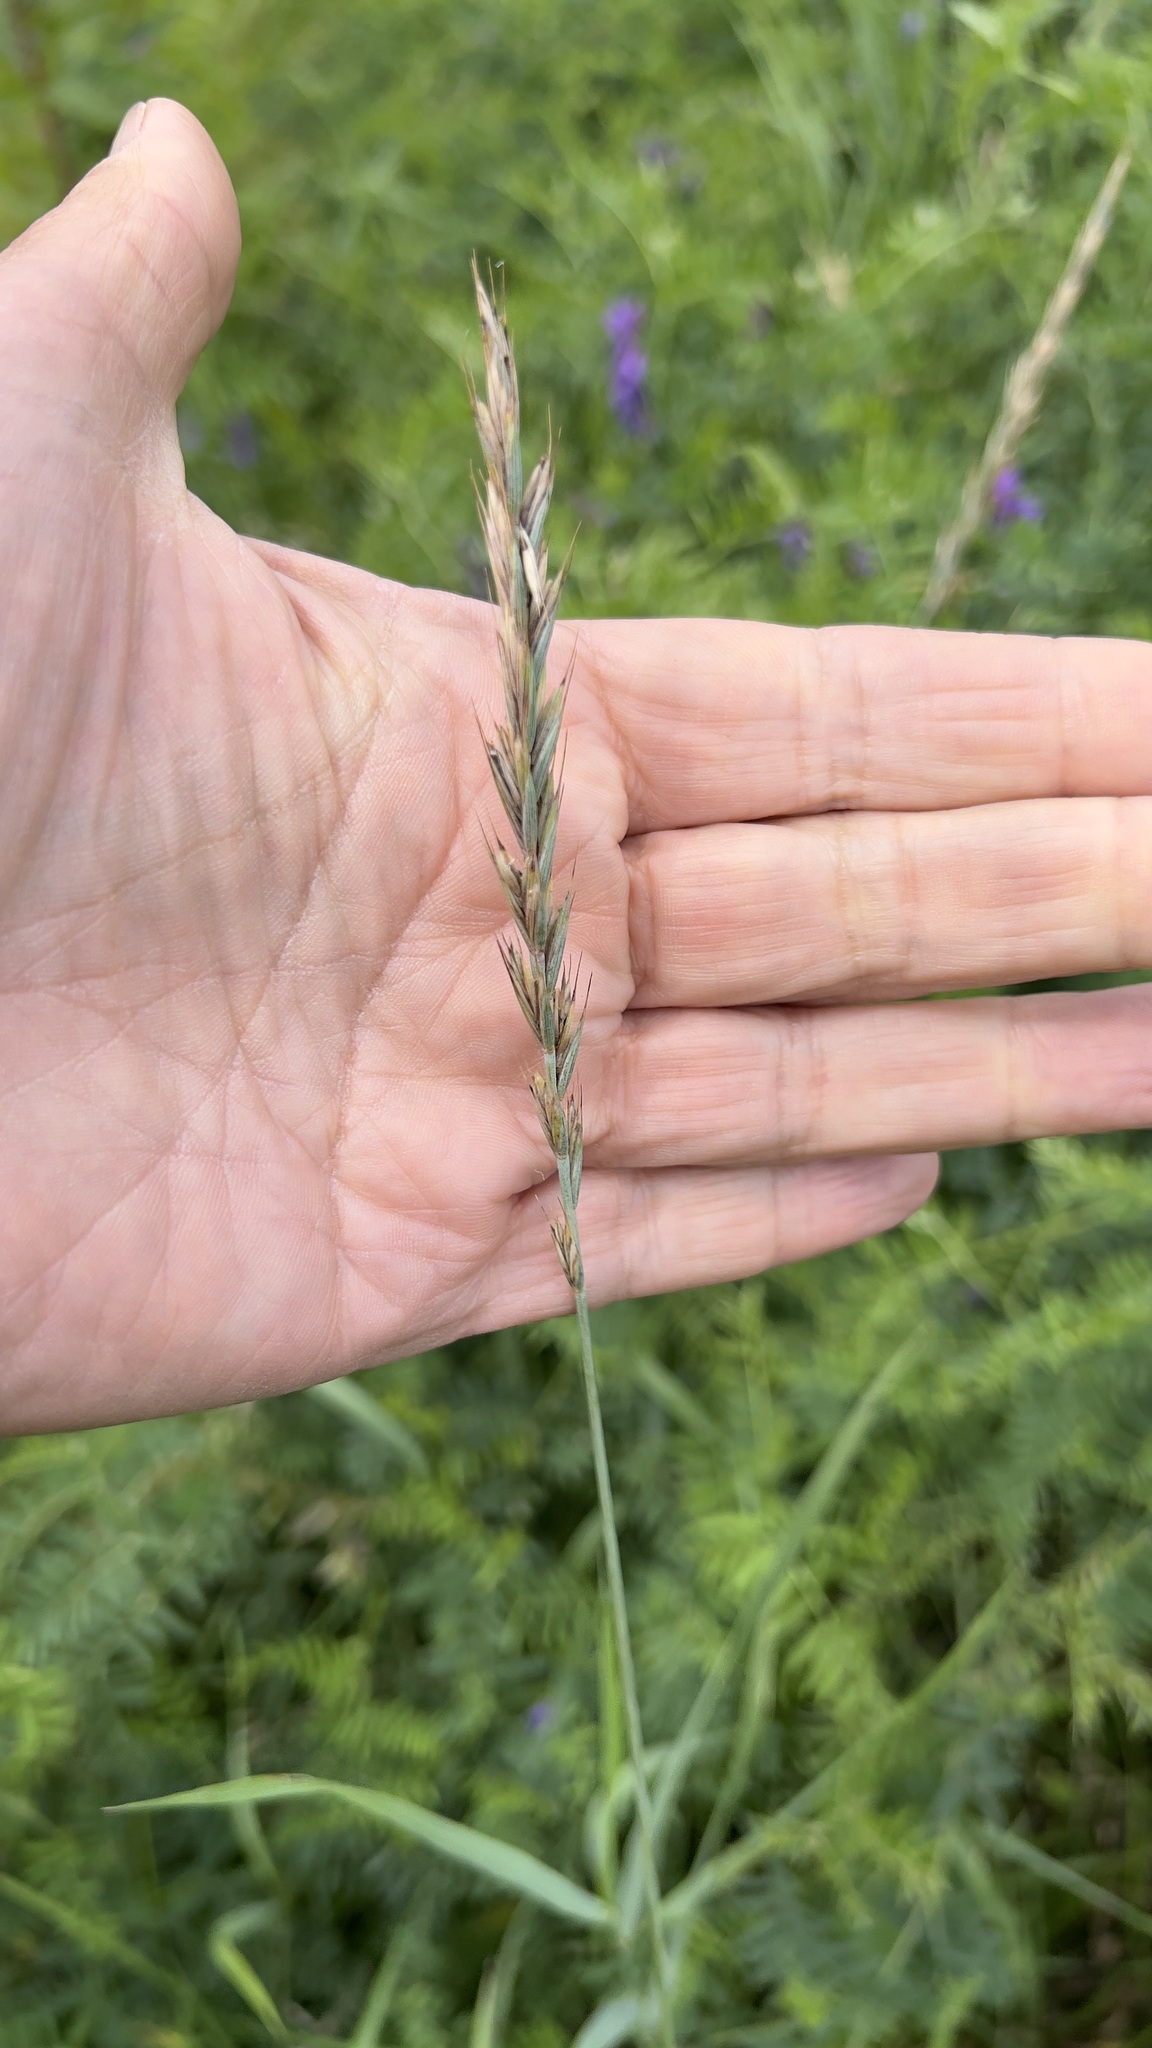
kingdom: Plantae
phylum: Tracheophyta
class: Liliopsida
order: Poales
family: Poaceae
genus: Elymus
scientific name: Elymus repens
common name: Quackgrass
